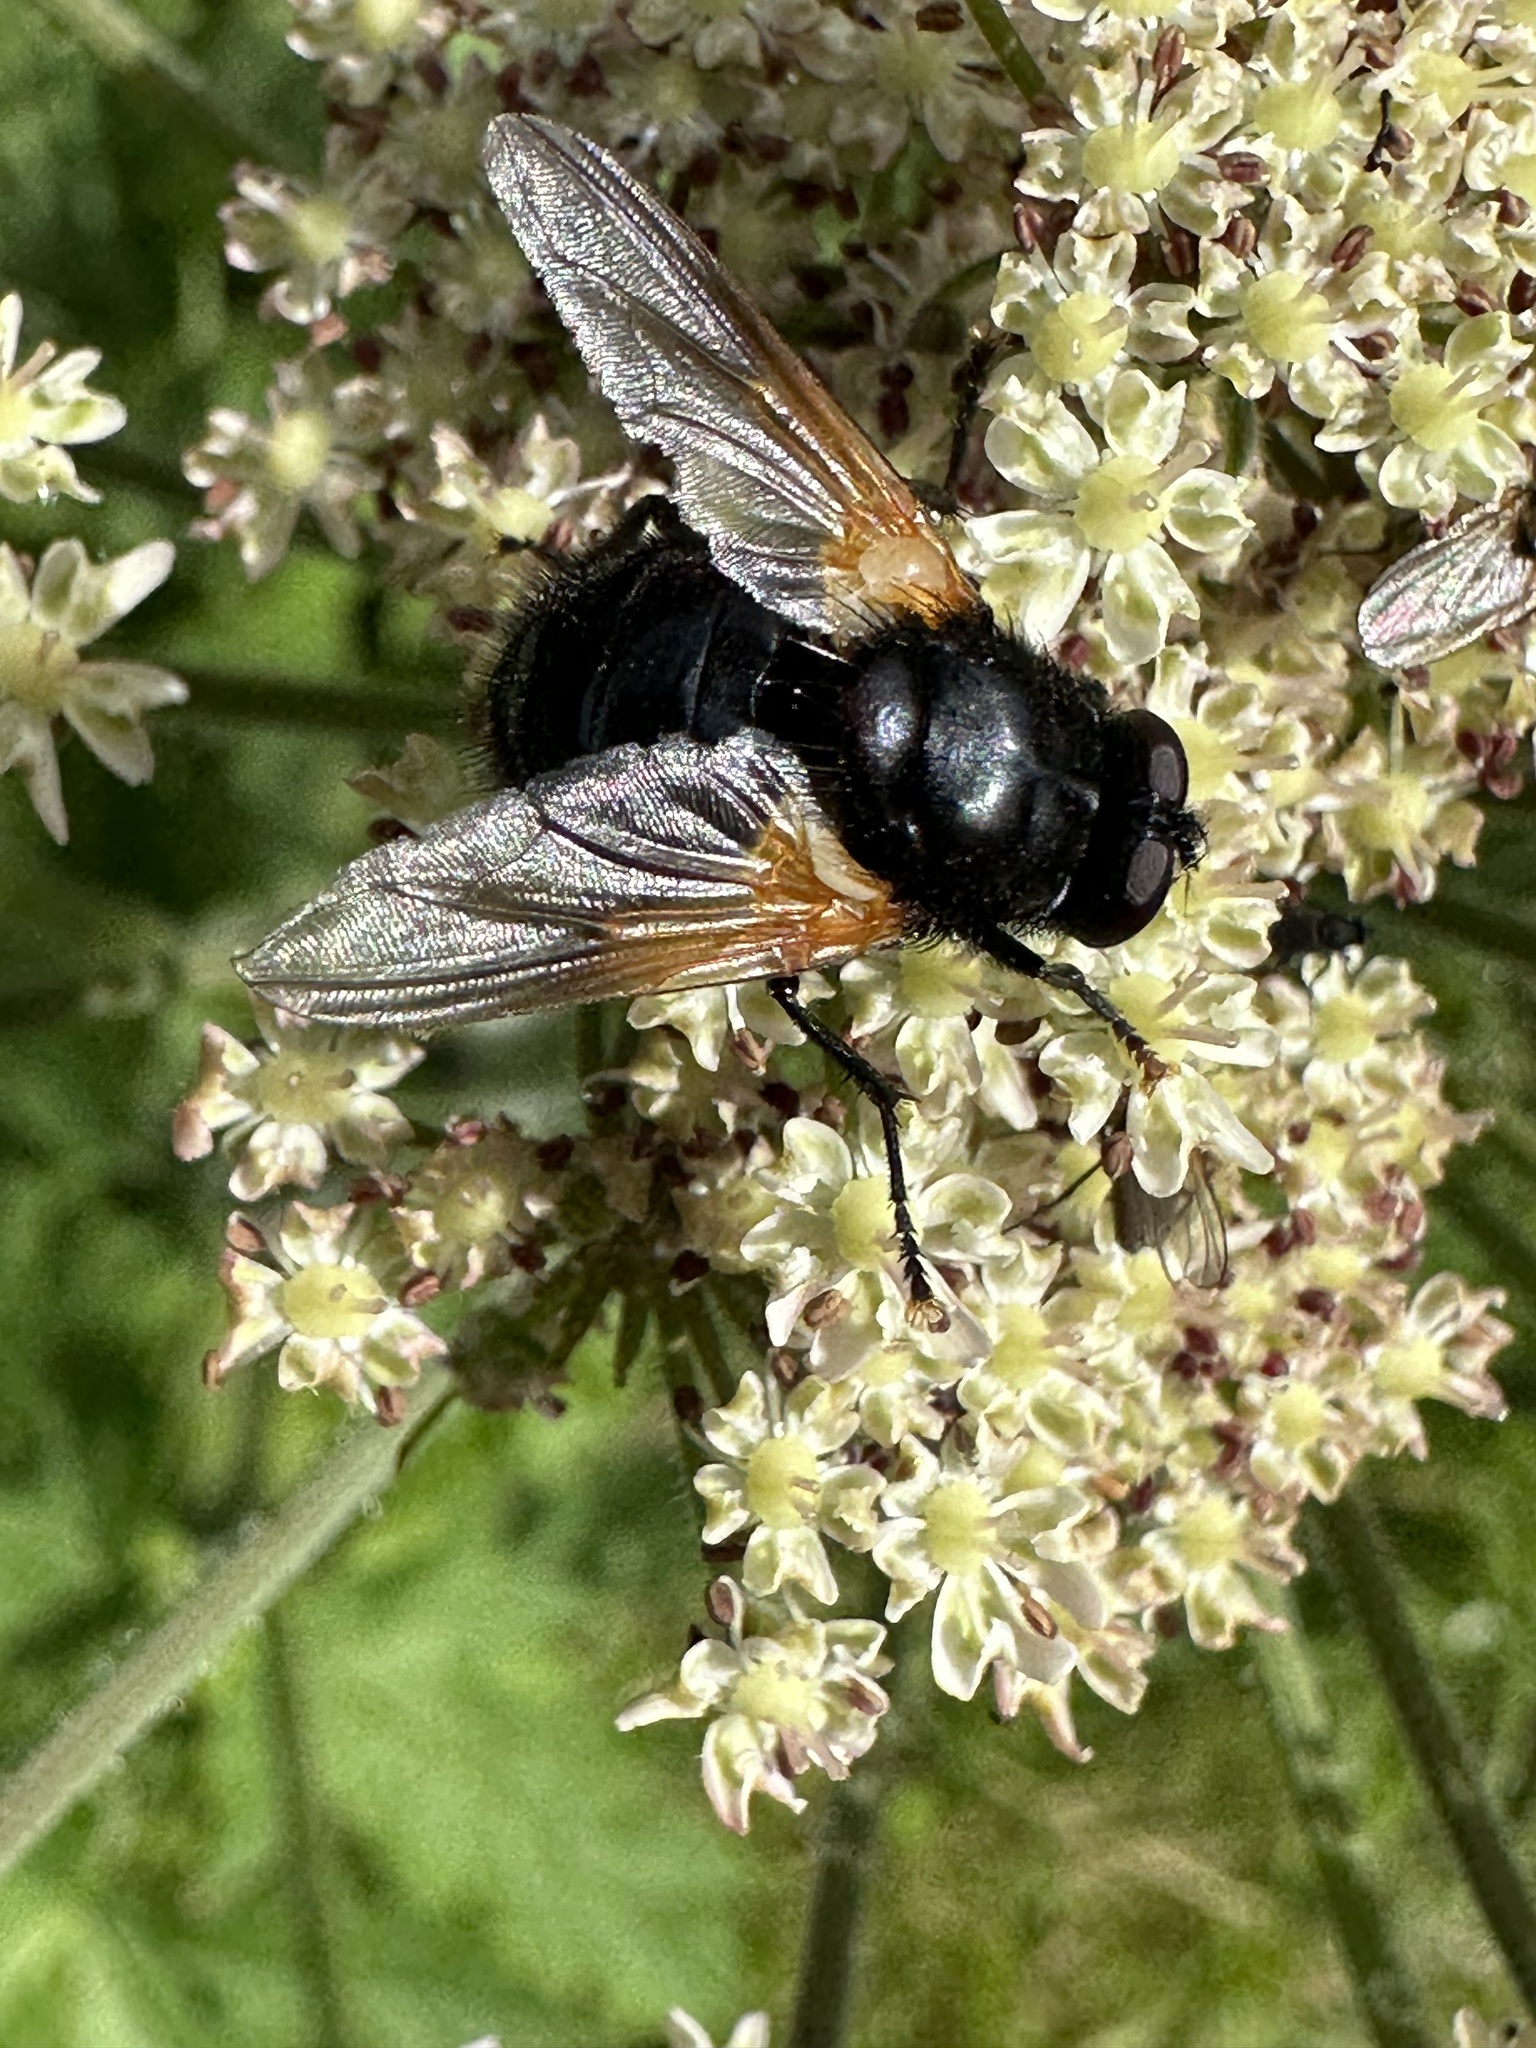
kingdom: Animalia
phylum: Arthropoda
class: Insecta
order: Diptera
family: Muscidae
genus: Mesembrina
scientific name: Mesembrina meridiana
